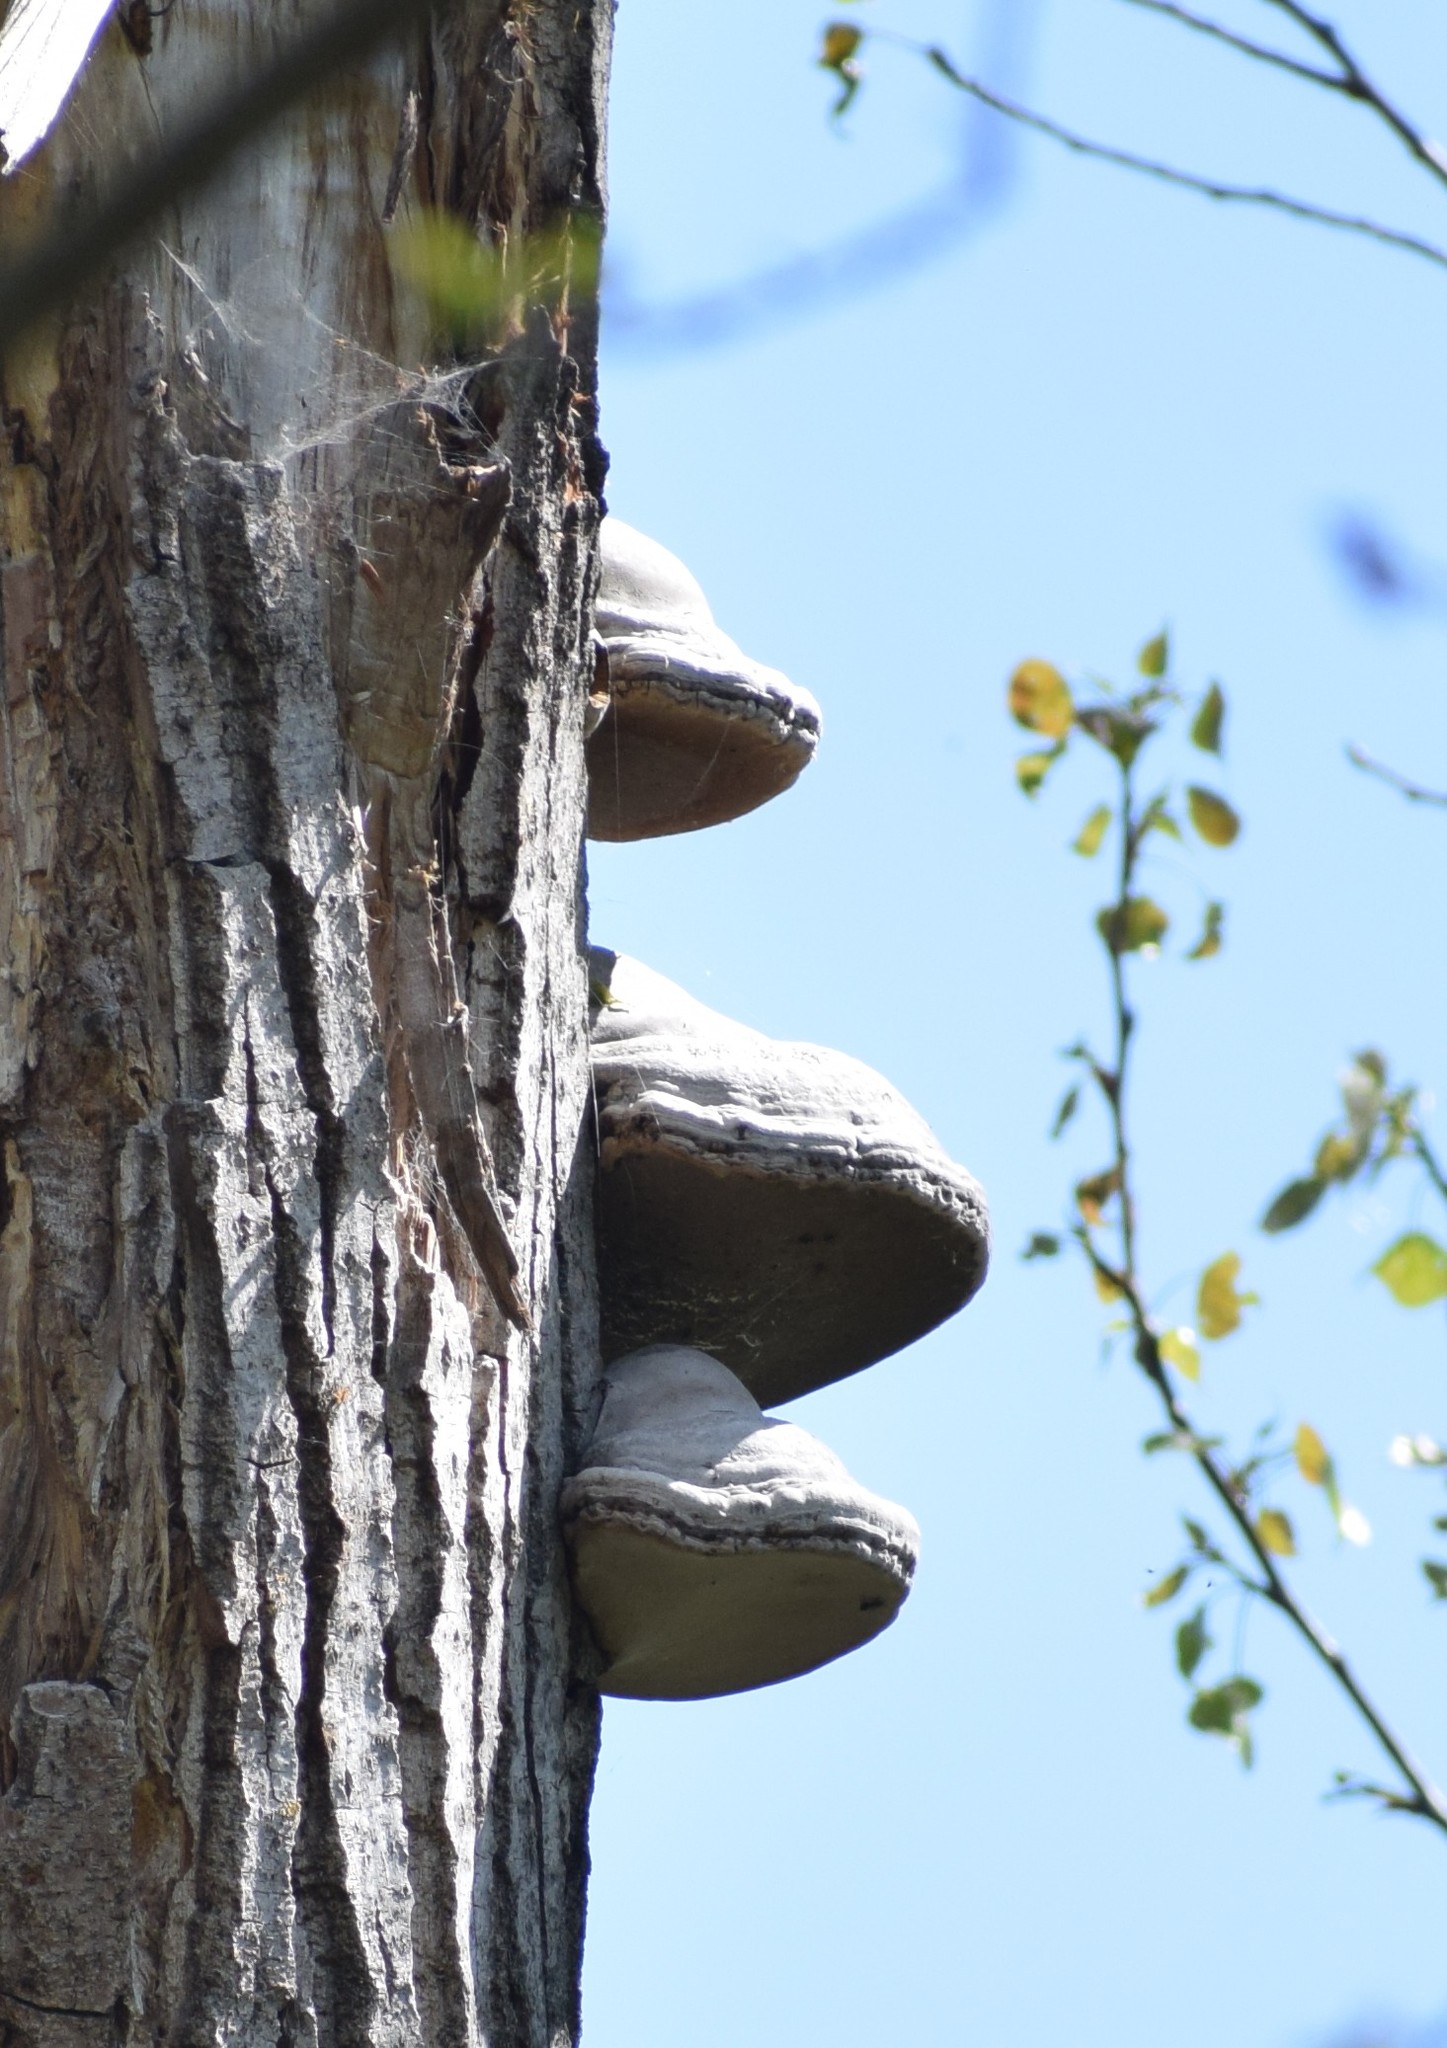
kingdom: Fungi
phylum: Basidiomycota
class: Agaricomycetes
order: Polyporales
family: Polyporaceae
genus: Fomes
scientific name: Fomes fomentarius
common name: Hoof fungus
